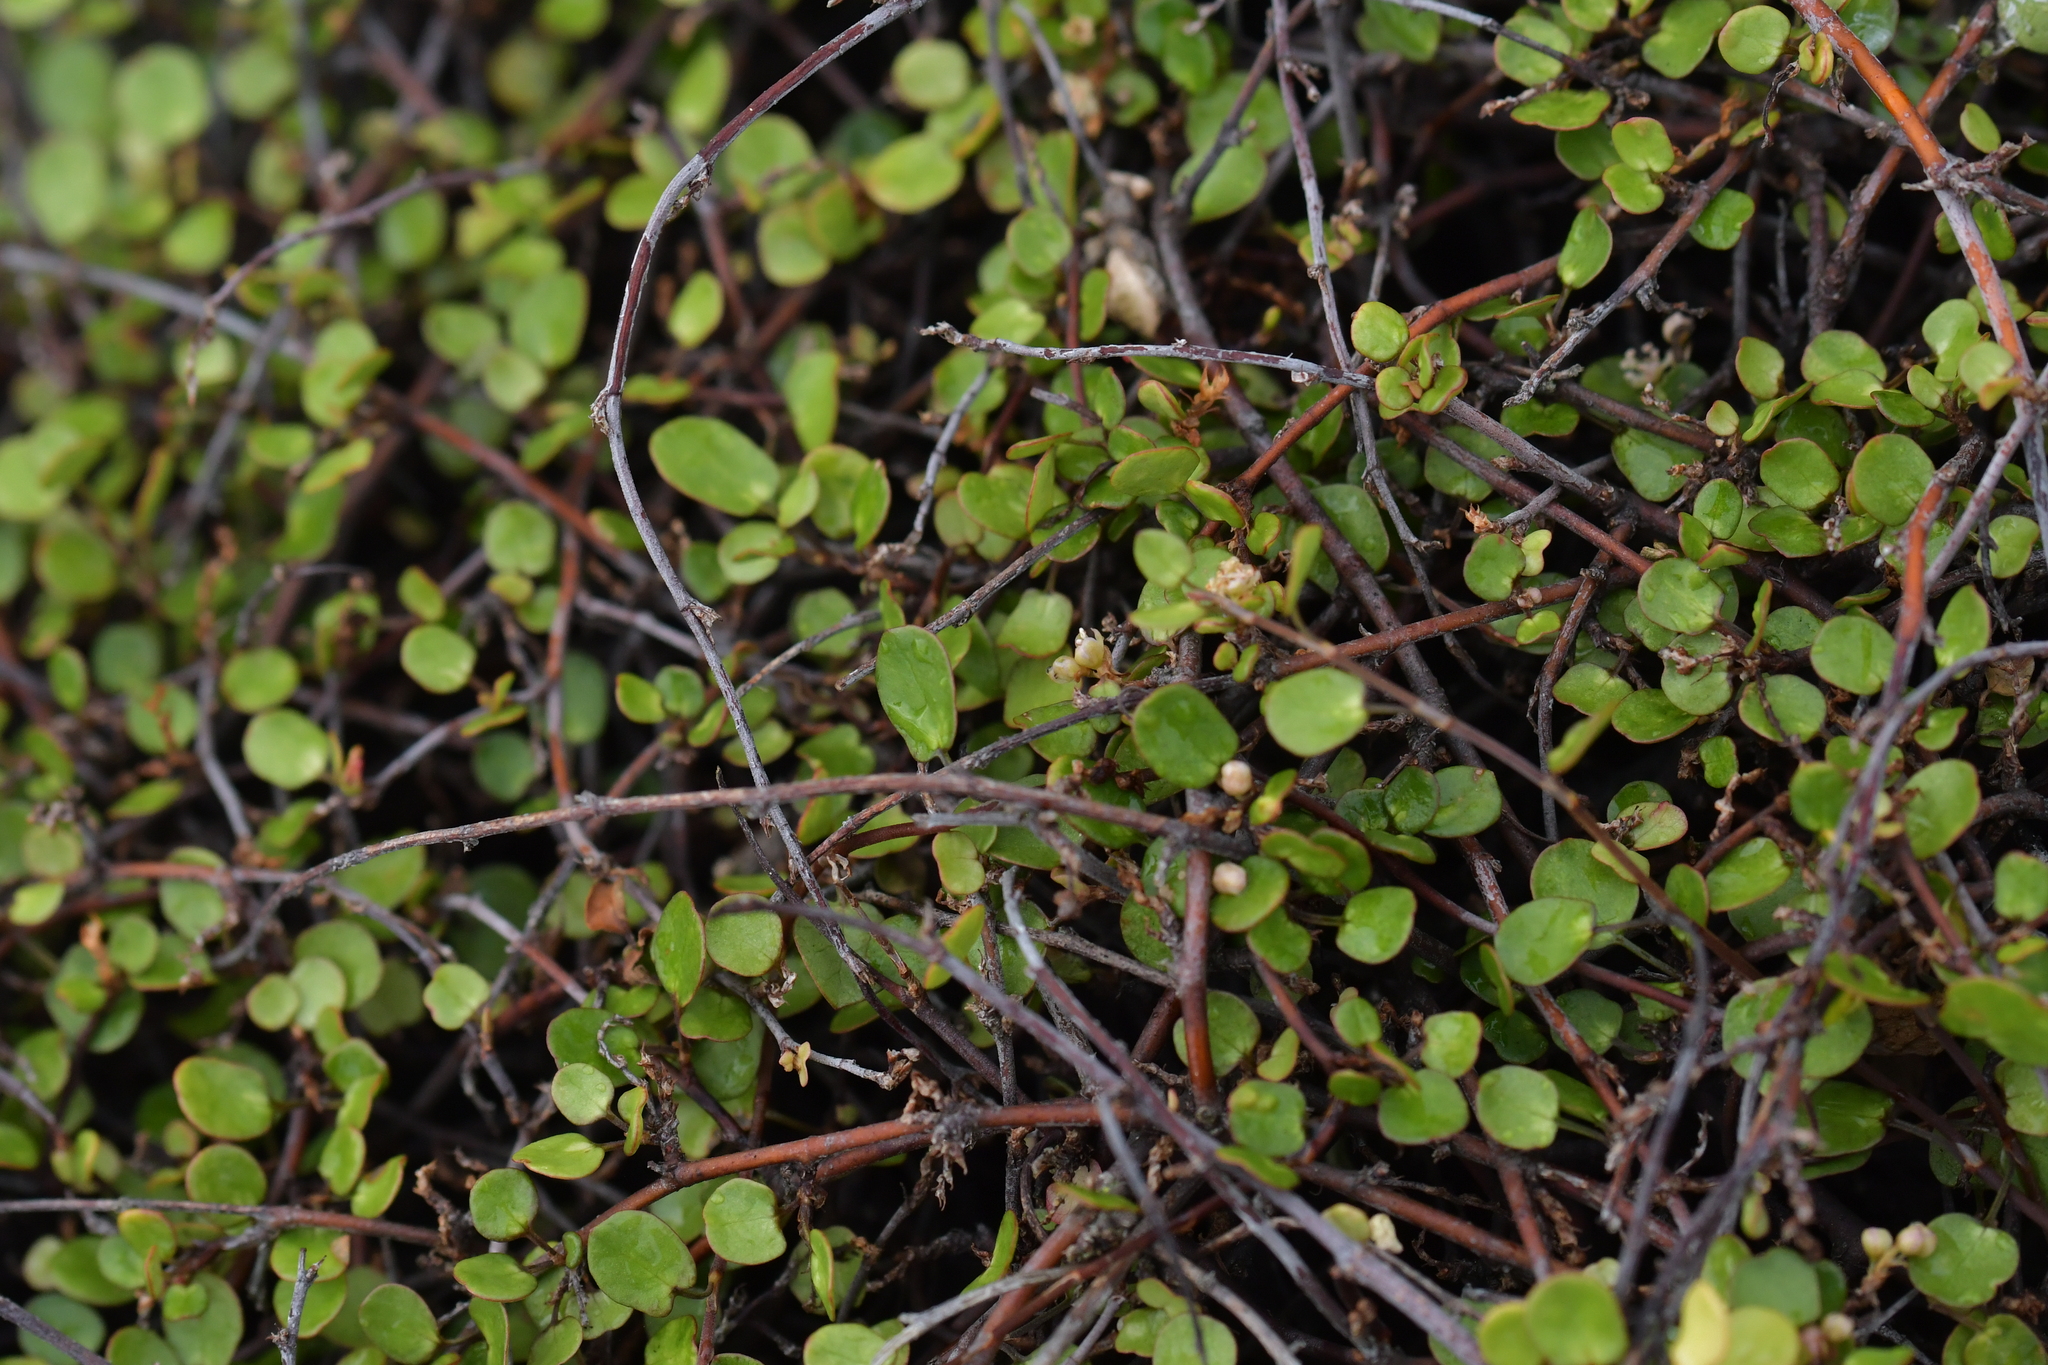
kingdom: Plantae
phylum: Tracheophyta
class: Magnoliopsida
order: Caryophyllales
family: Polygonaceae
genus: Muehlenbeckia
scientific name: Muehlenbeckia complexa
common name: Wireplant
